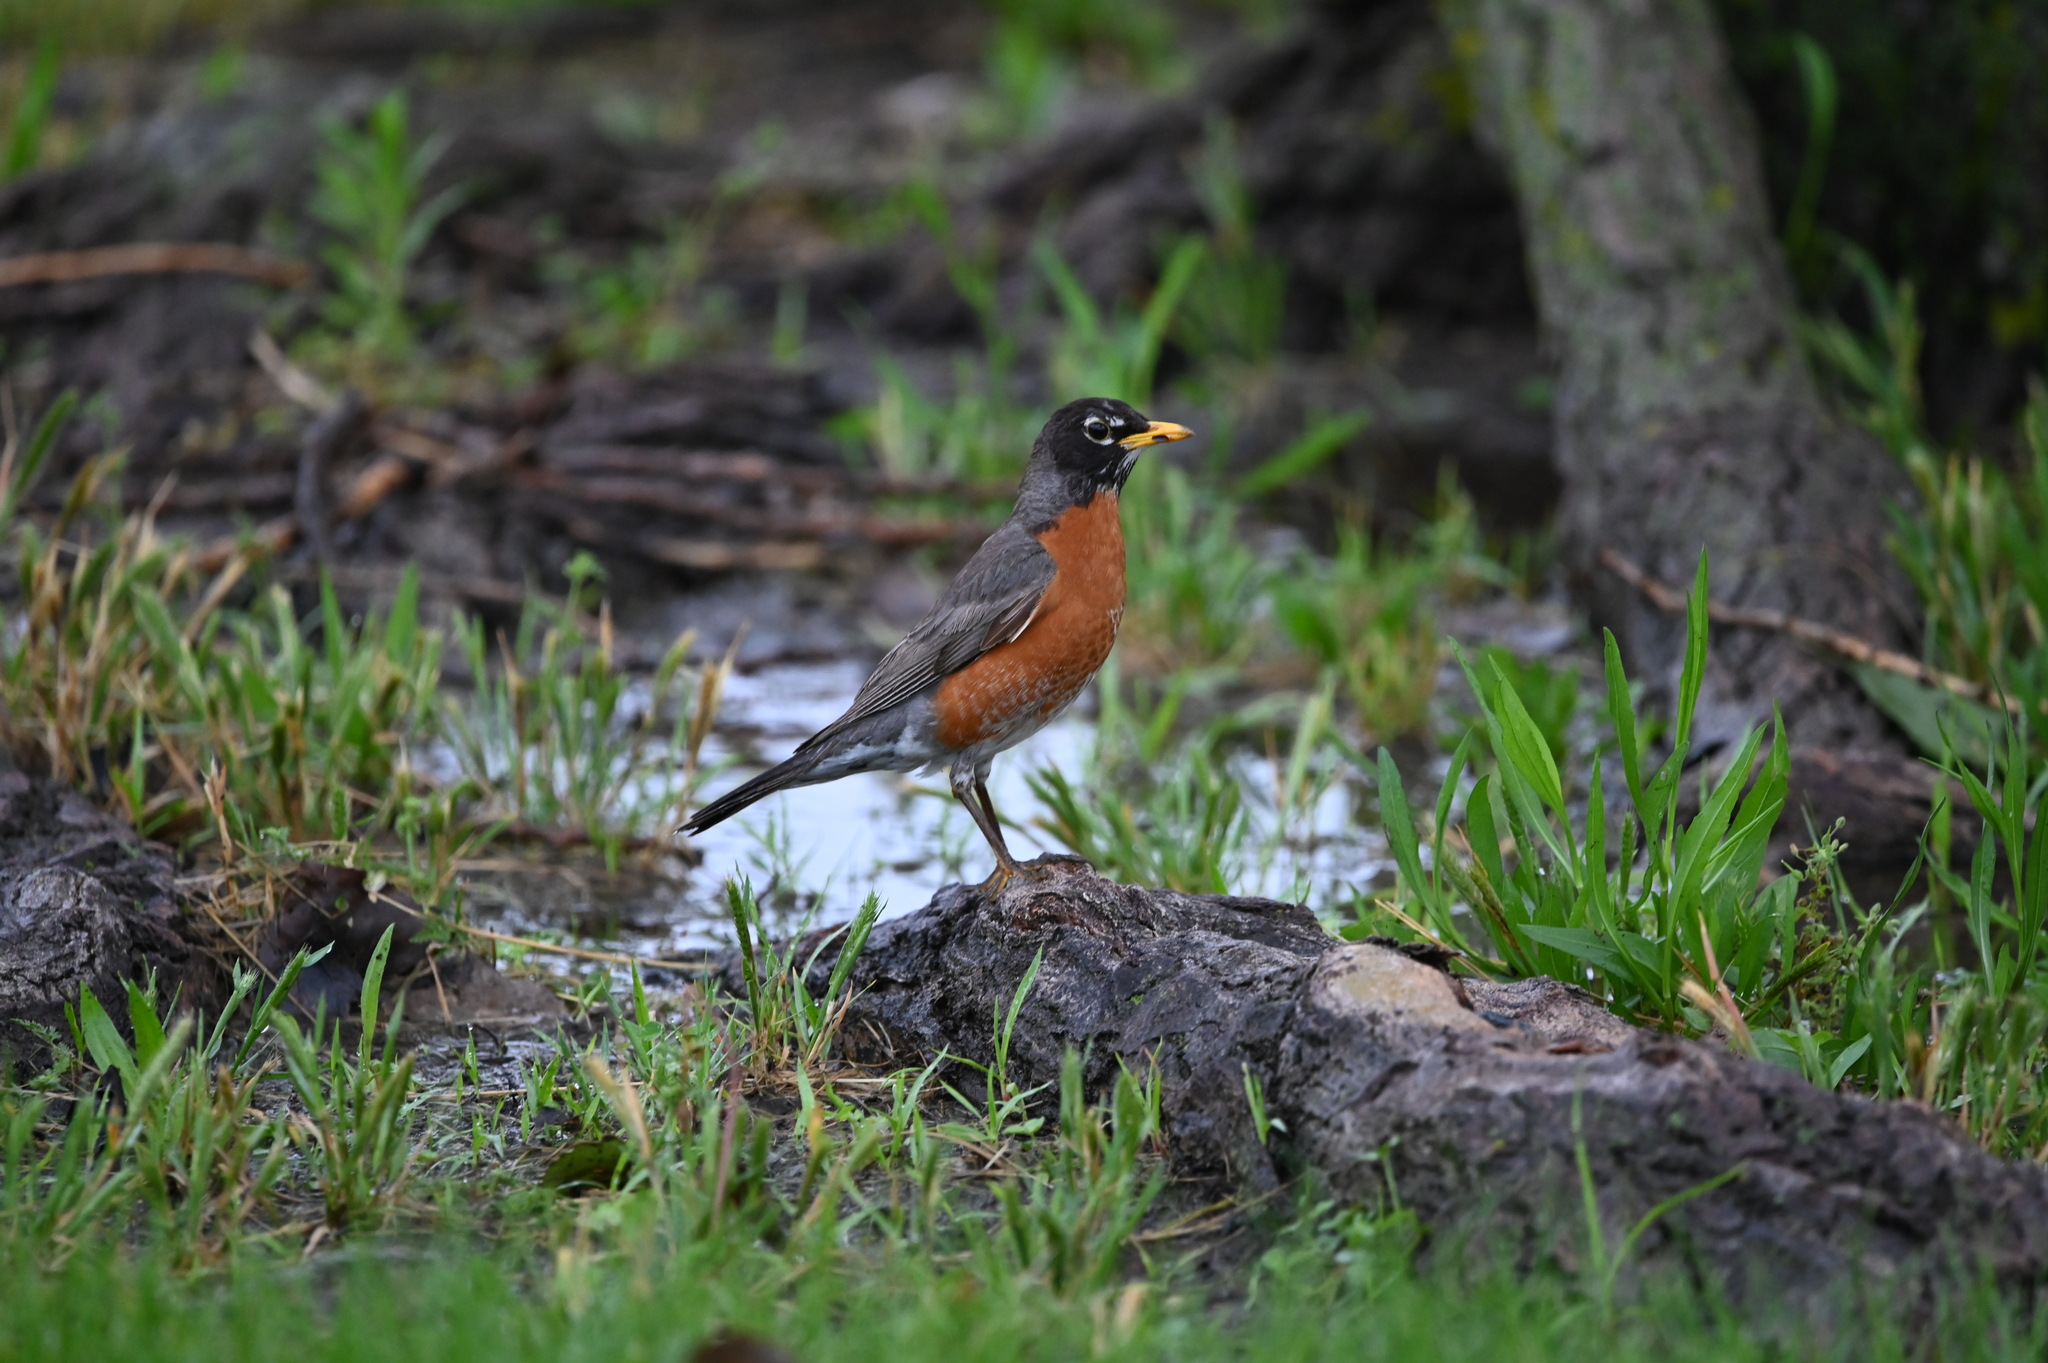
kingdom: Animalia
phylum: Chordata
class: Aves
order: Passeriformes
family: Turdidae
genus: Turdus
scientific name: Turdus migratorius
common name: American robin
